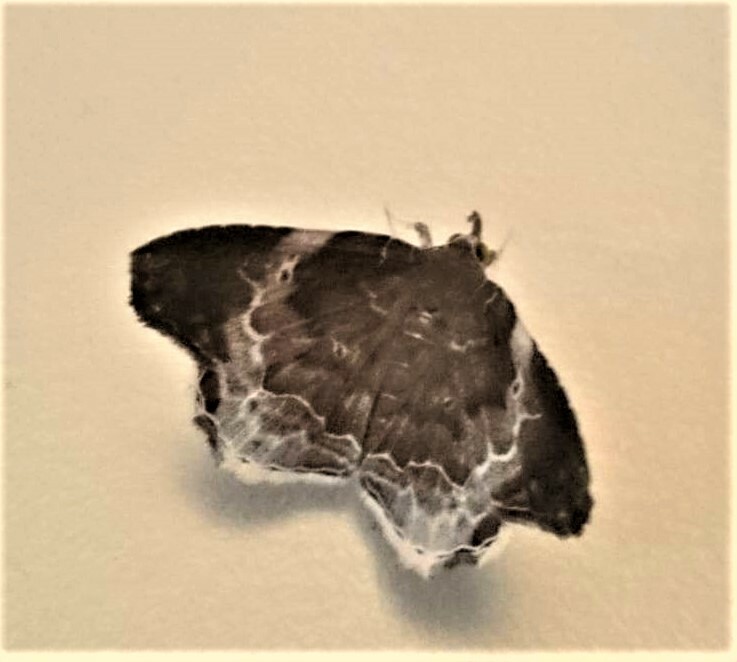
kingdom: Animalia
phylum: Arthropoda
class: Insecta
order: Lepidoptera
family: Erebidae
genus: Macrodes
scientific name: Macrodes cynara
